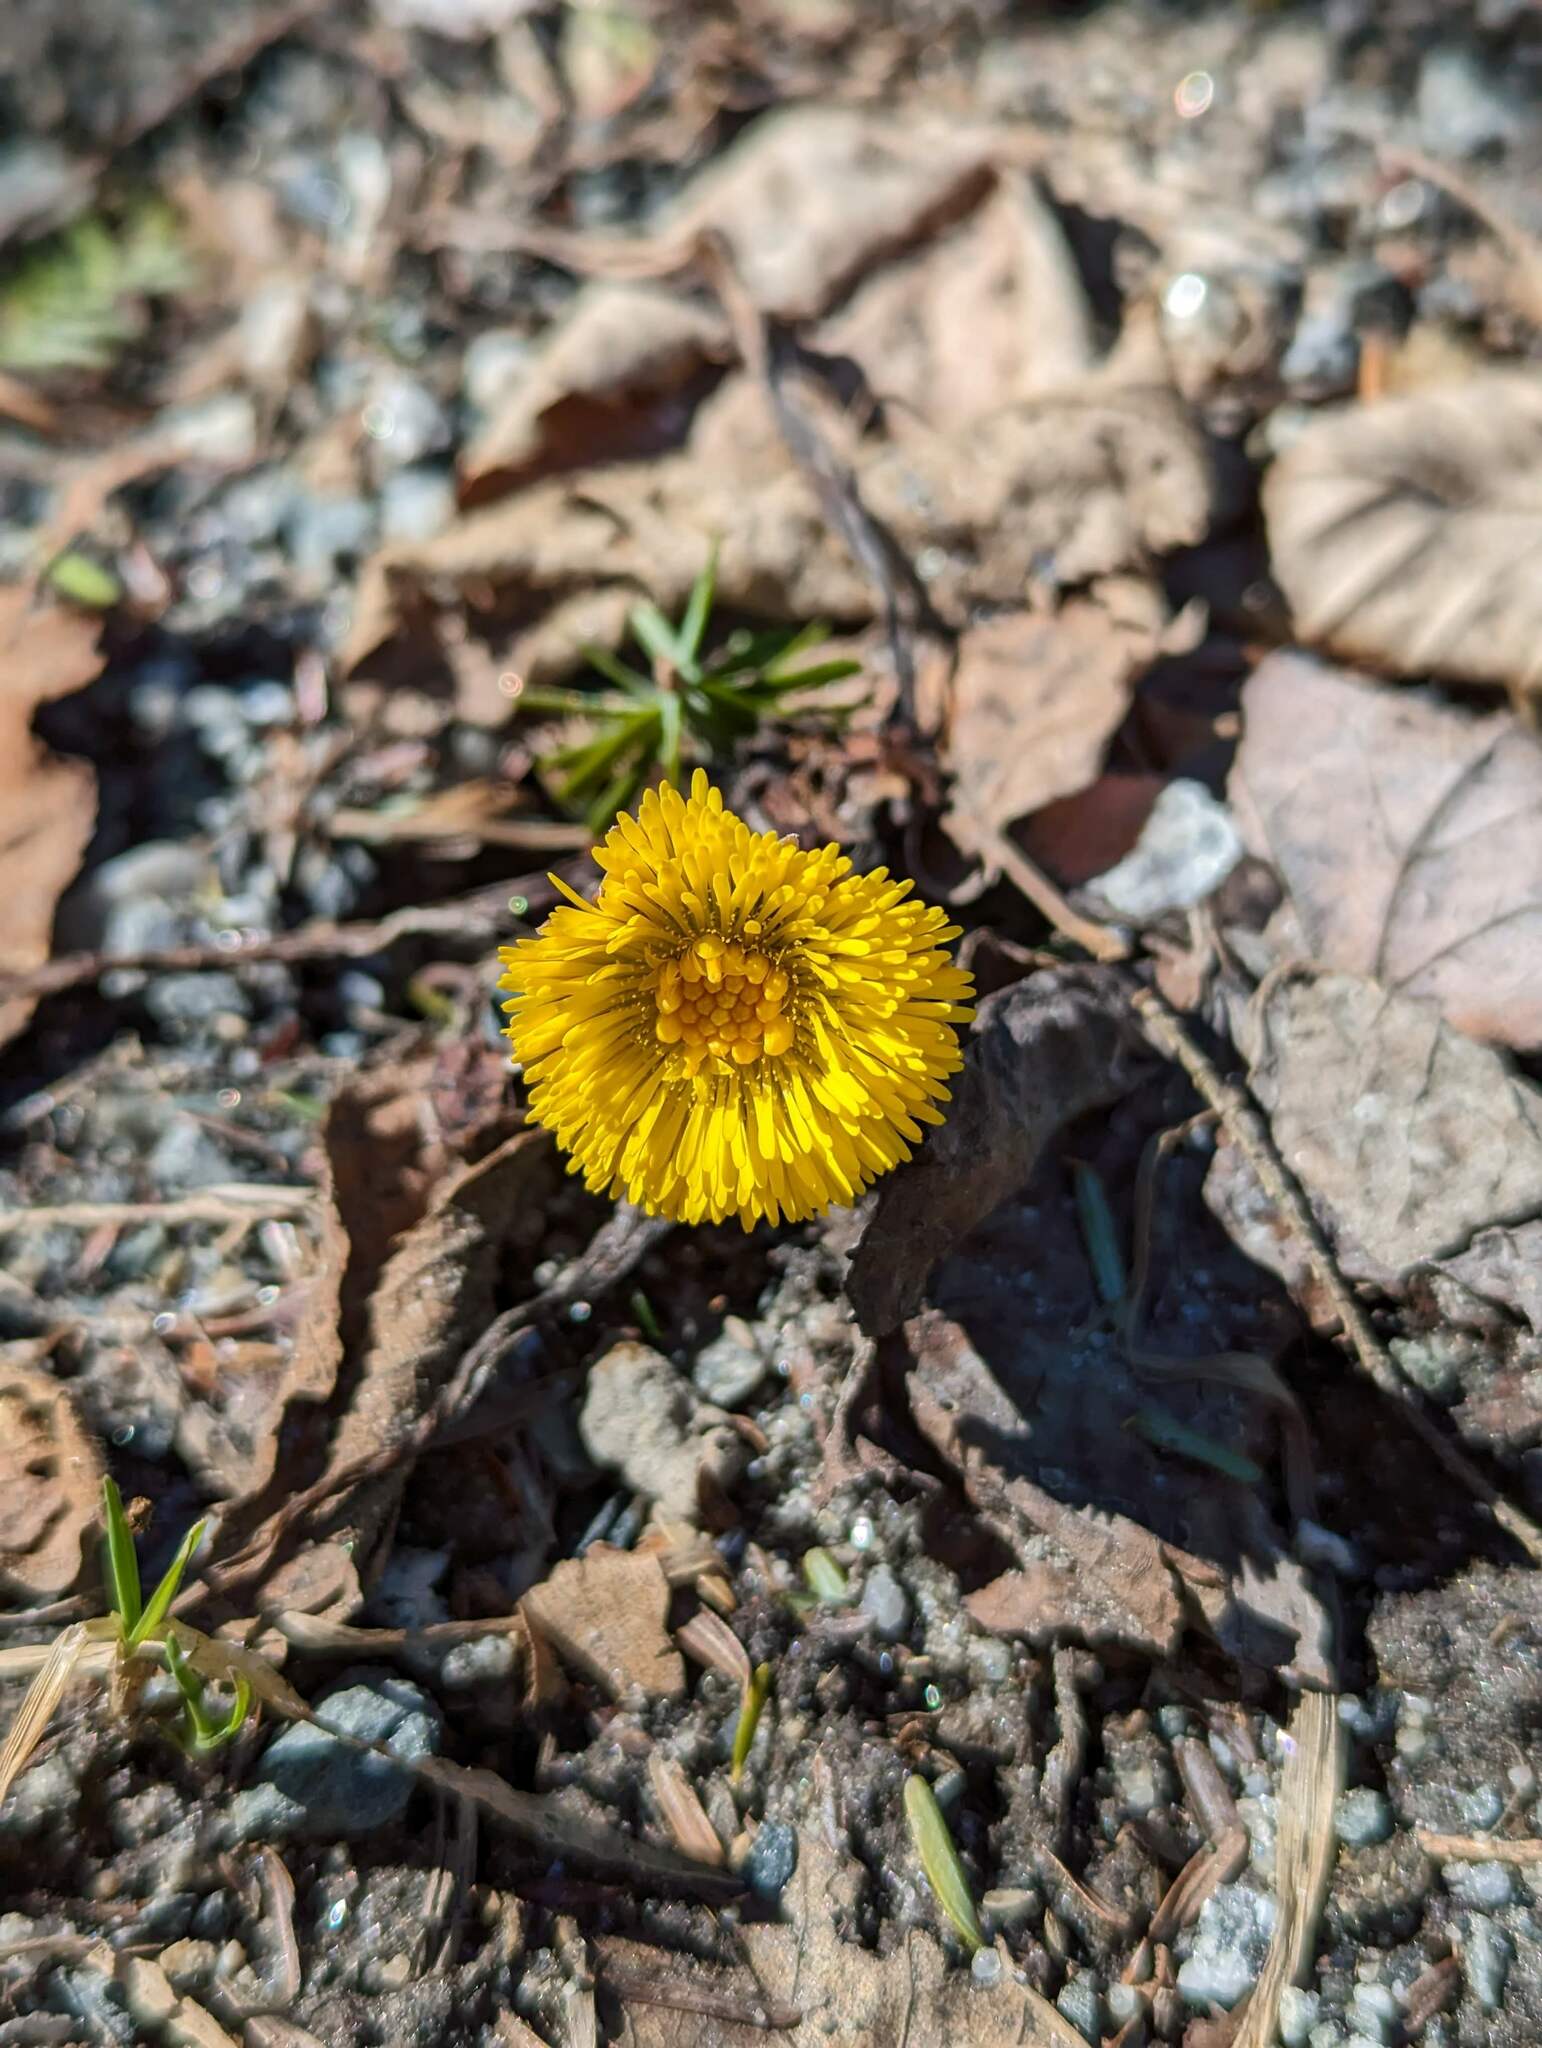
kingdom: Plantae
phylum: Tracheophyta
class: Magnoliopsida
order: Asterales
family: Asteraceae
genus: Tussilago
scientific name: Tussilago farfara
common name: Coltsfoot
